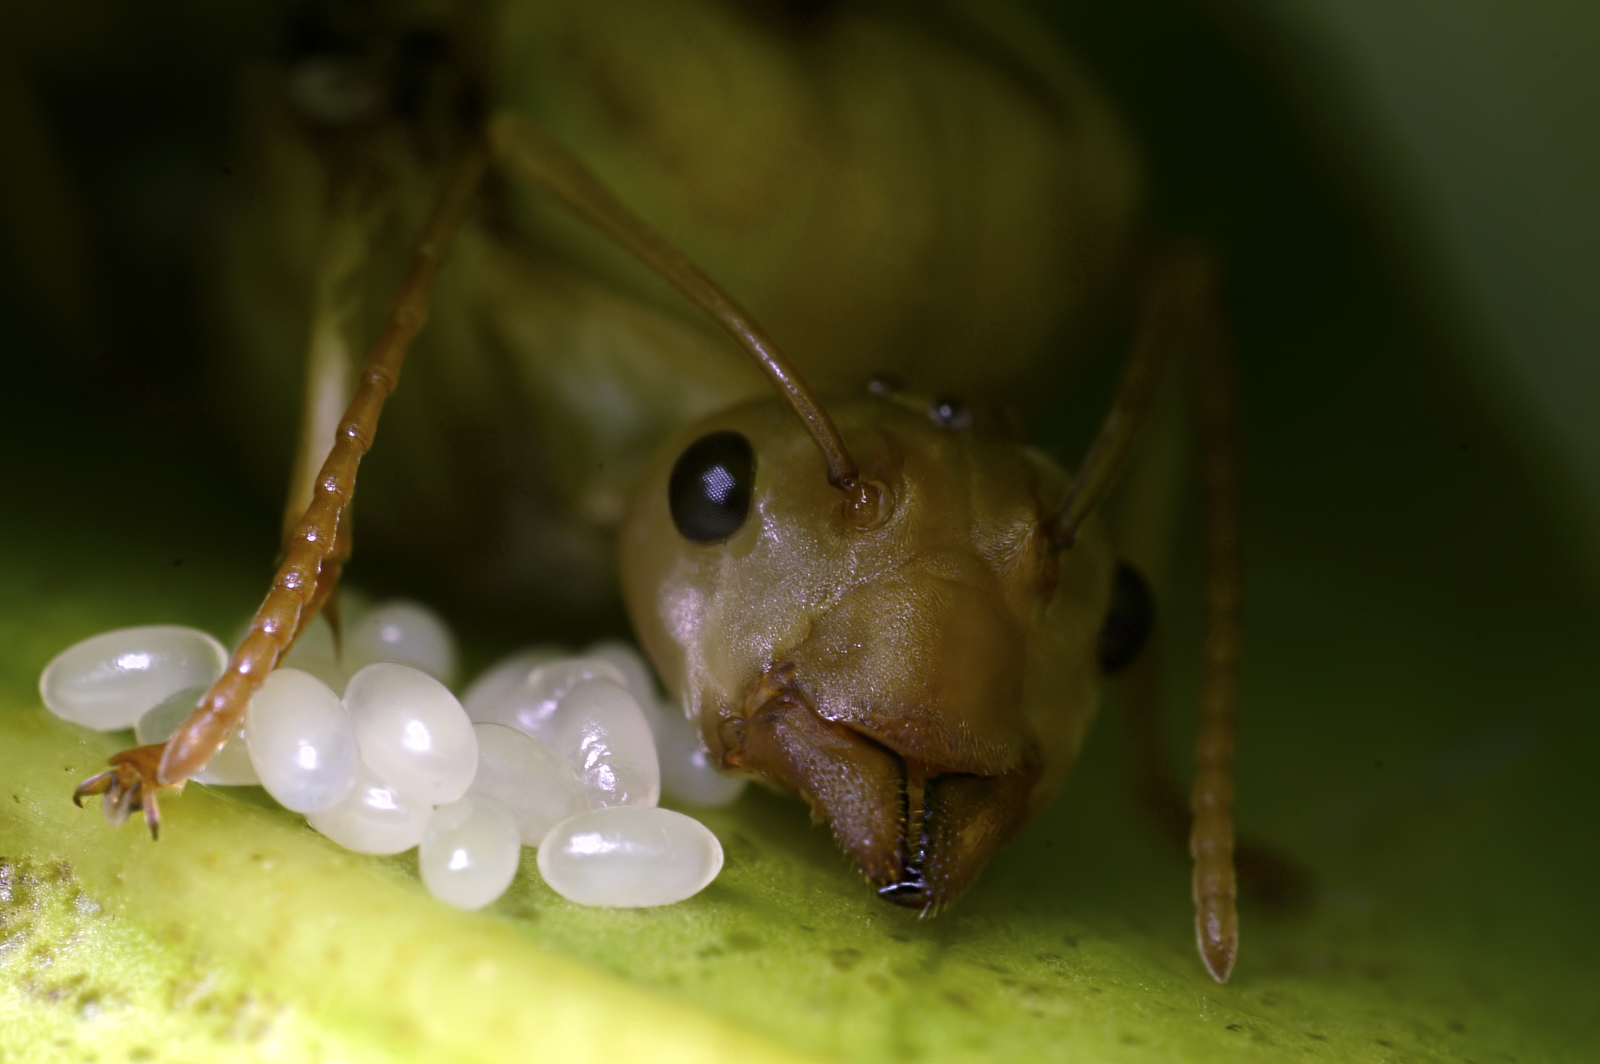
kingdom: Animalia
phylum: Arthropoda
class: Insecta
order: Hymenoptera
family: Formicidae
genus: Oecophylla
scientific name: Oecophylla smaragdina
